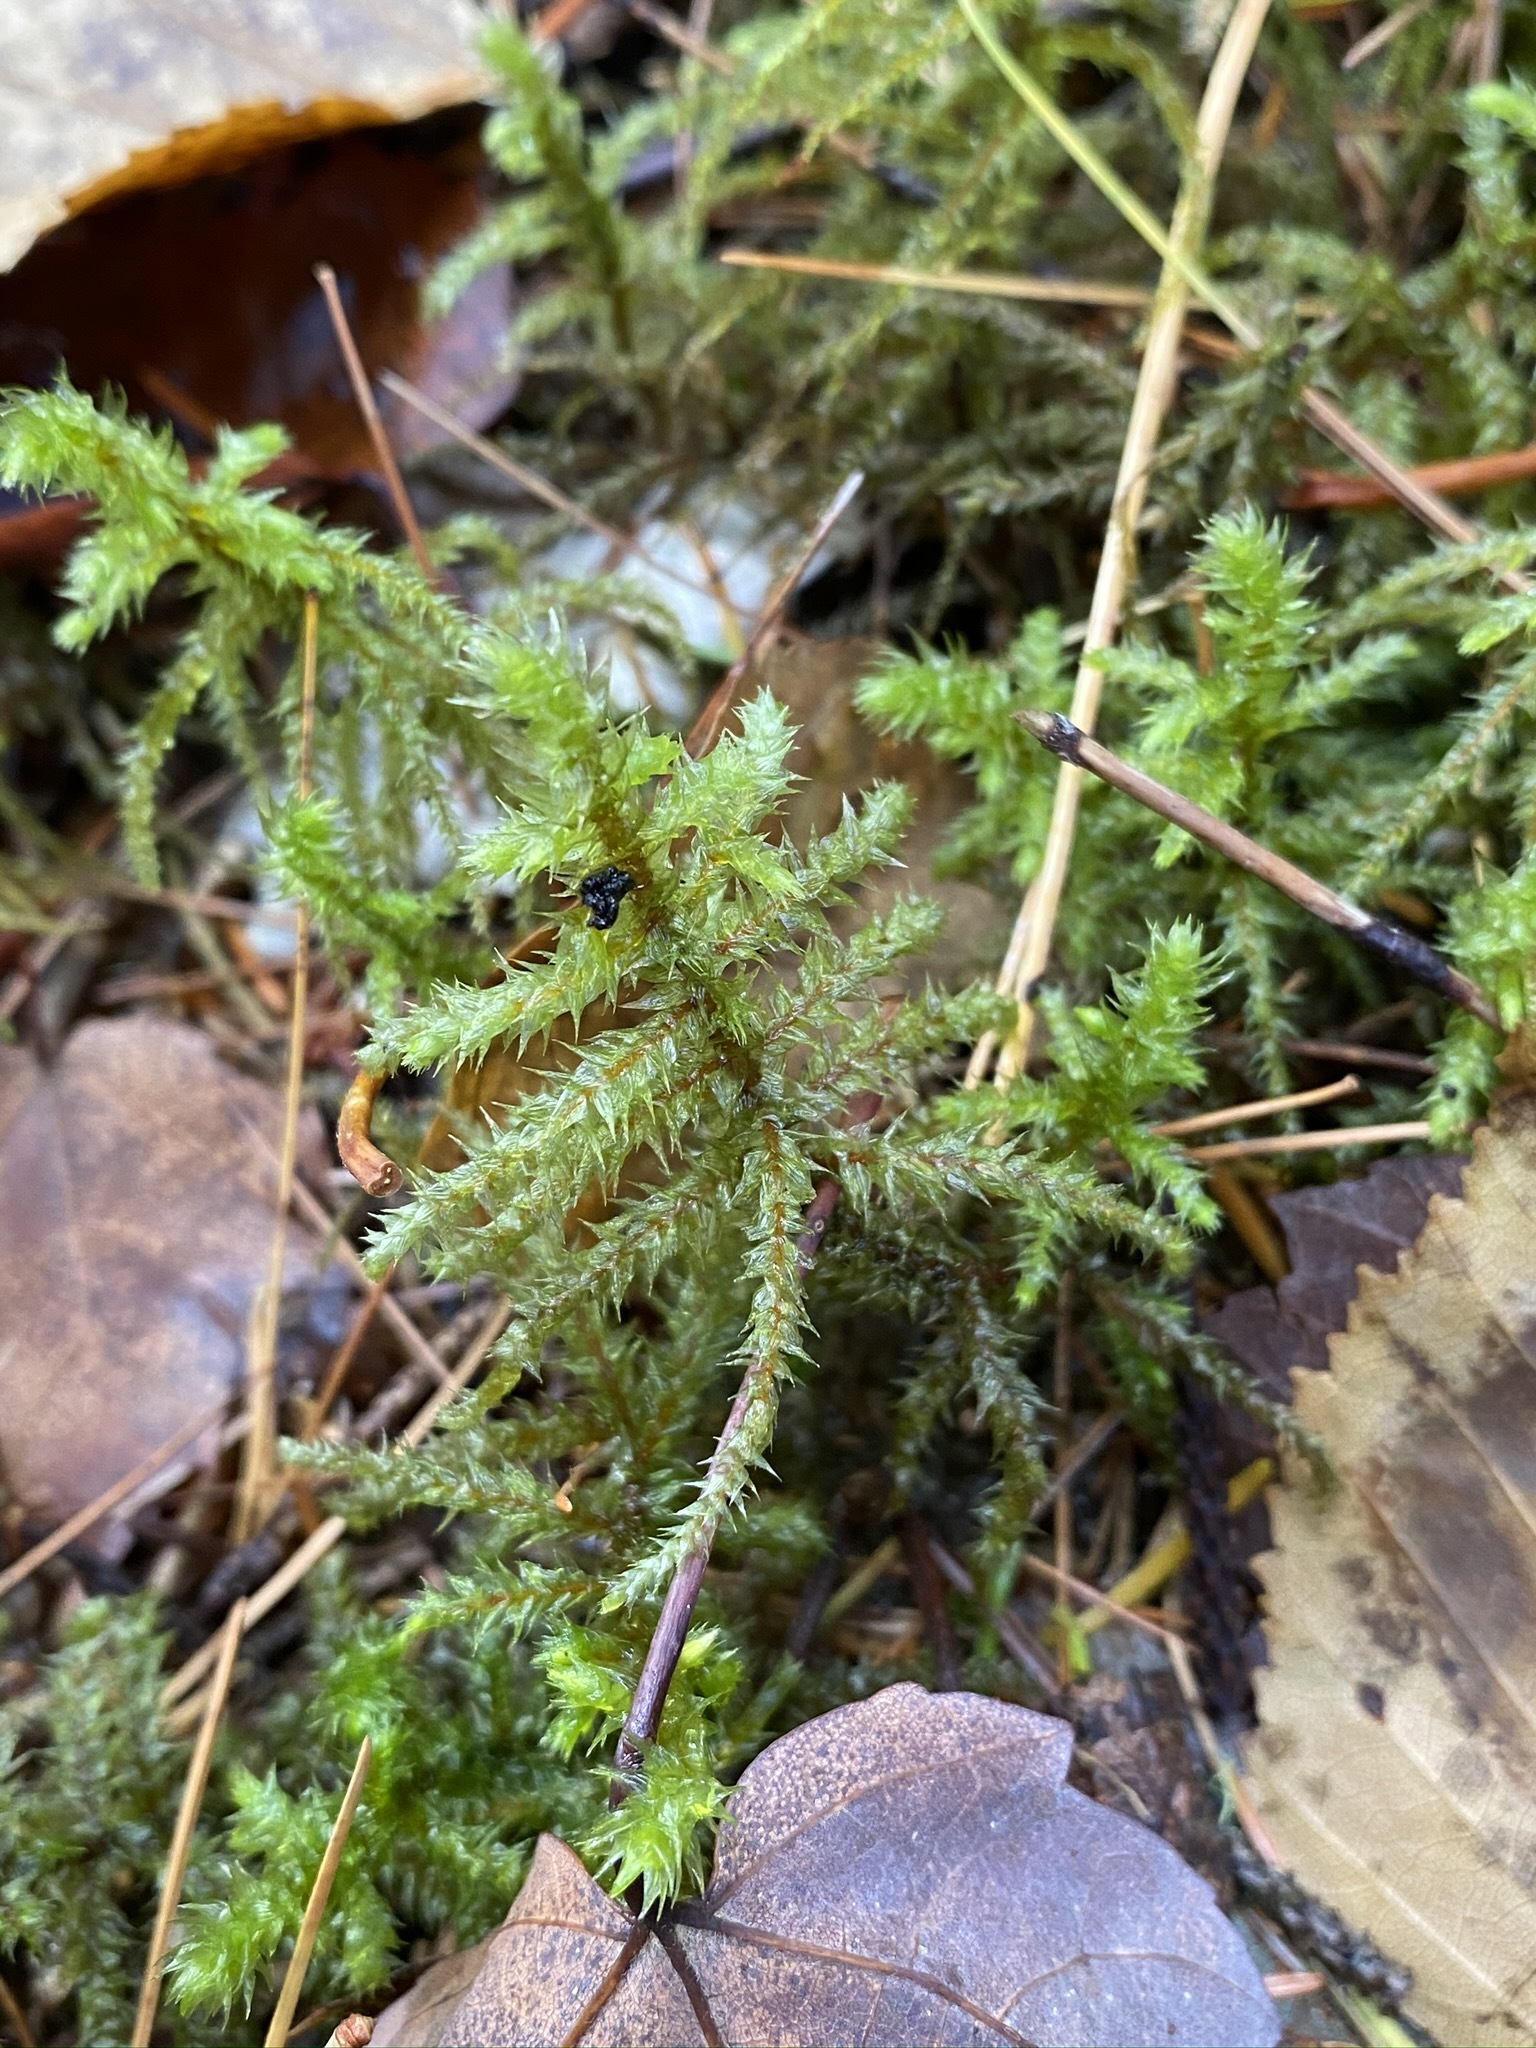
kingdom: Plantae
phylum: Bryophyta
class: Bryopsida
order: Hypnales
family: Hylocomiaceae
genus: Hylocomiadelphus
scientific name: Hylocomiadelphus triquetrus
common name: Rough goose neck moss
